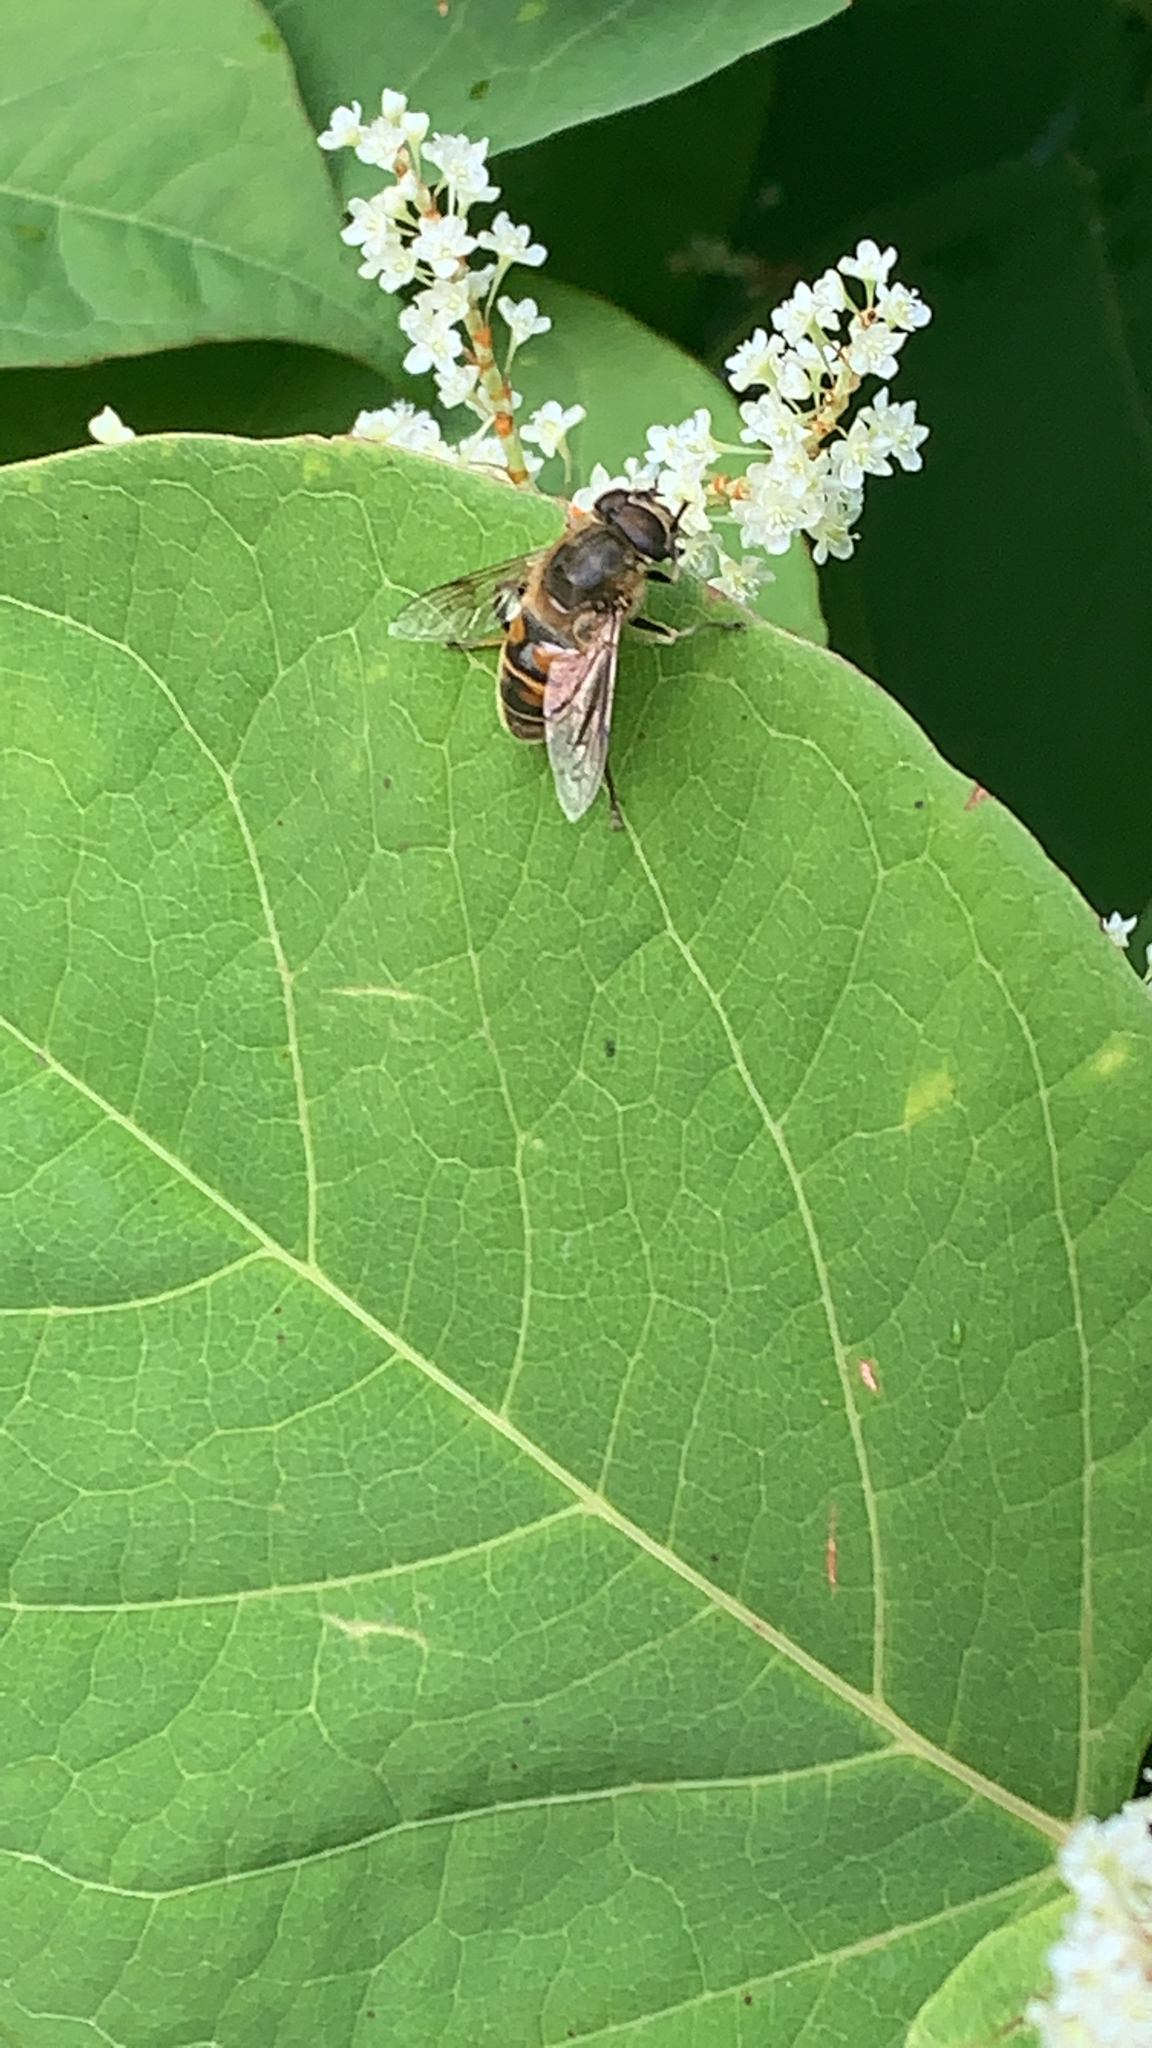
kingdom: Animalia
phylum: Arthropoda
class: Insecta
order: Diptera
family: Syrphidae
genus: Eristalis
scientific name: Eristalis tenax
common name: Drone fly
